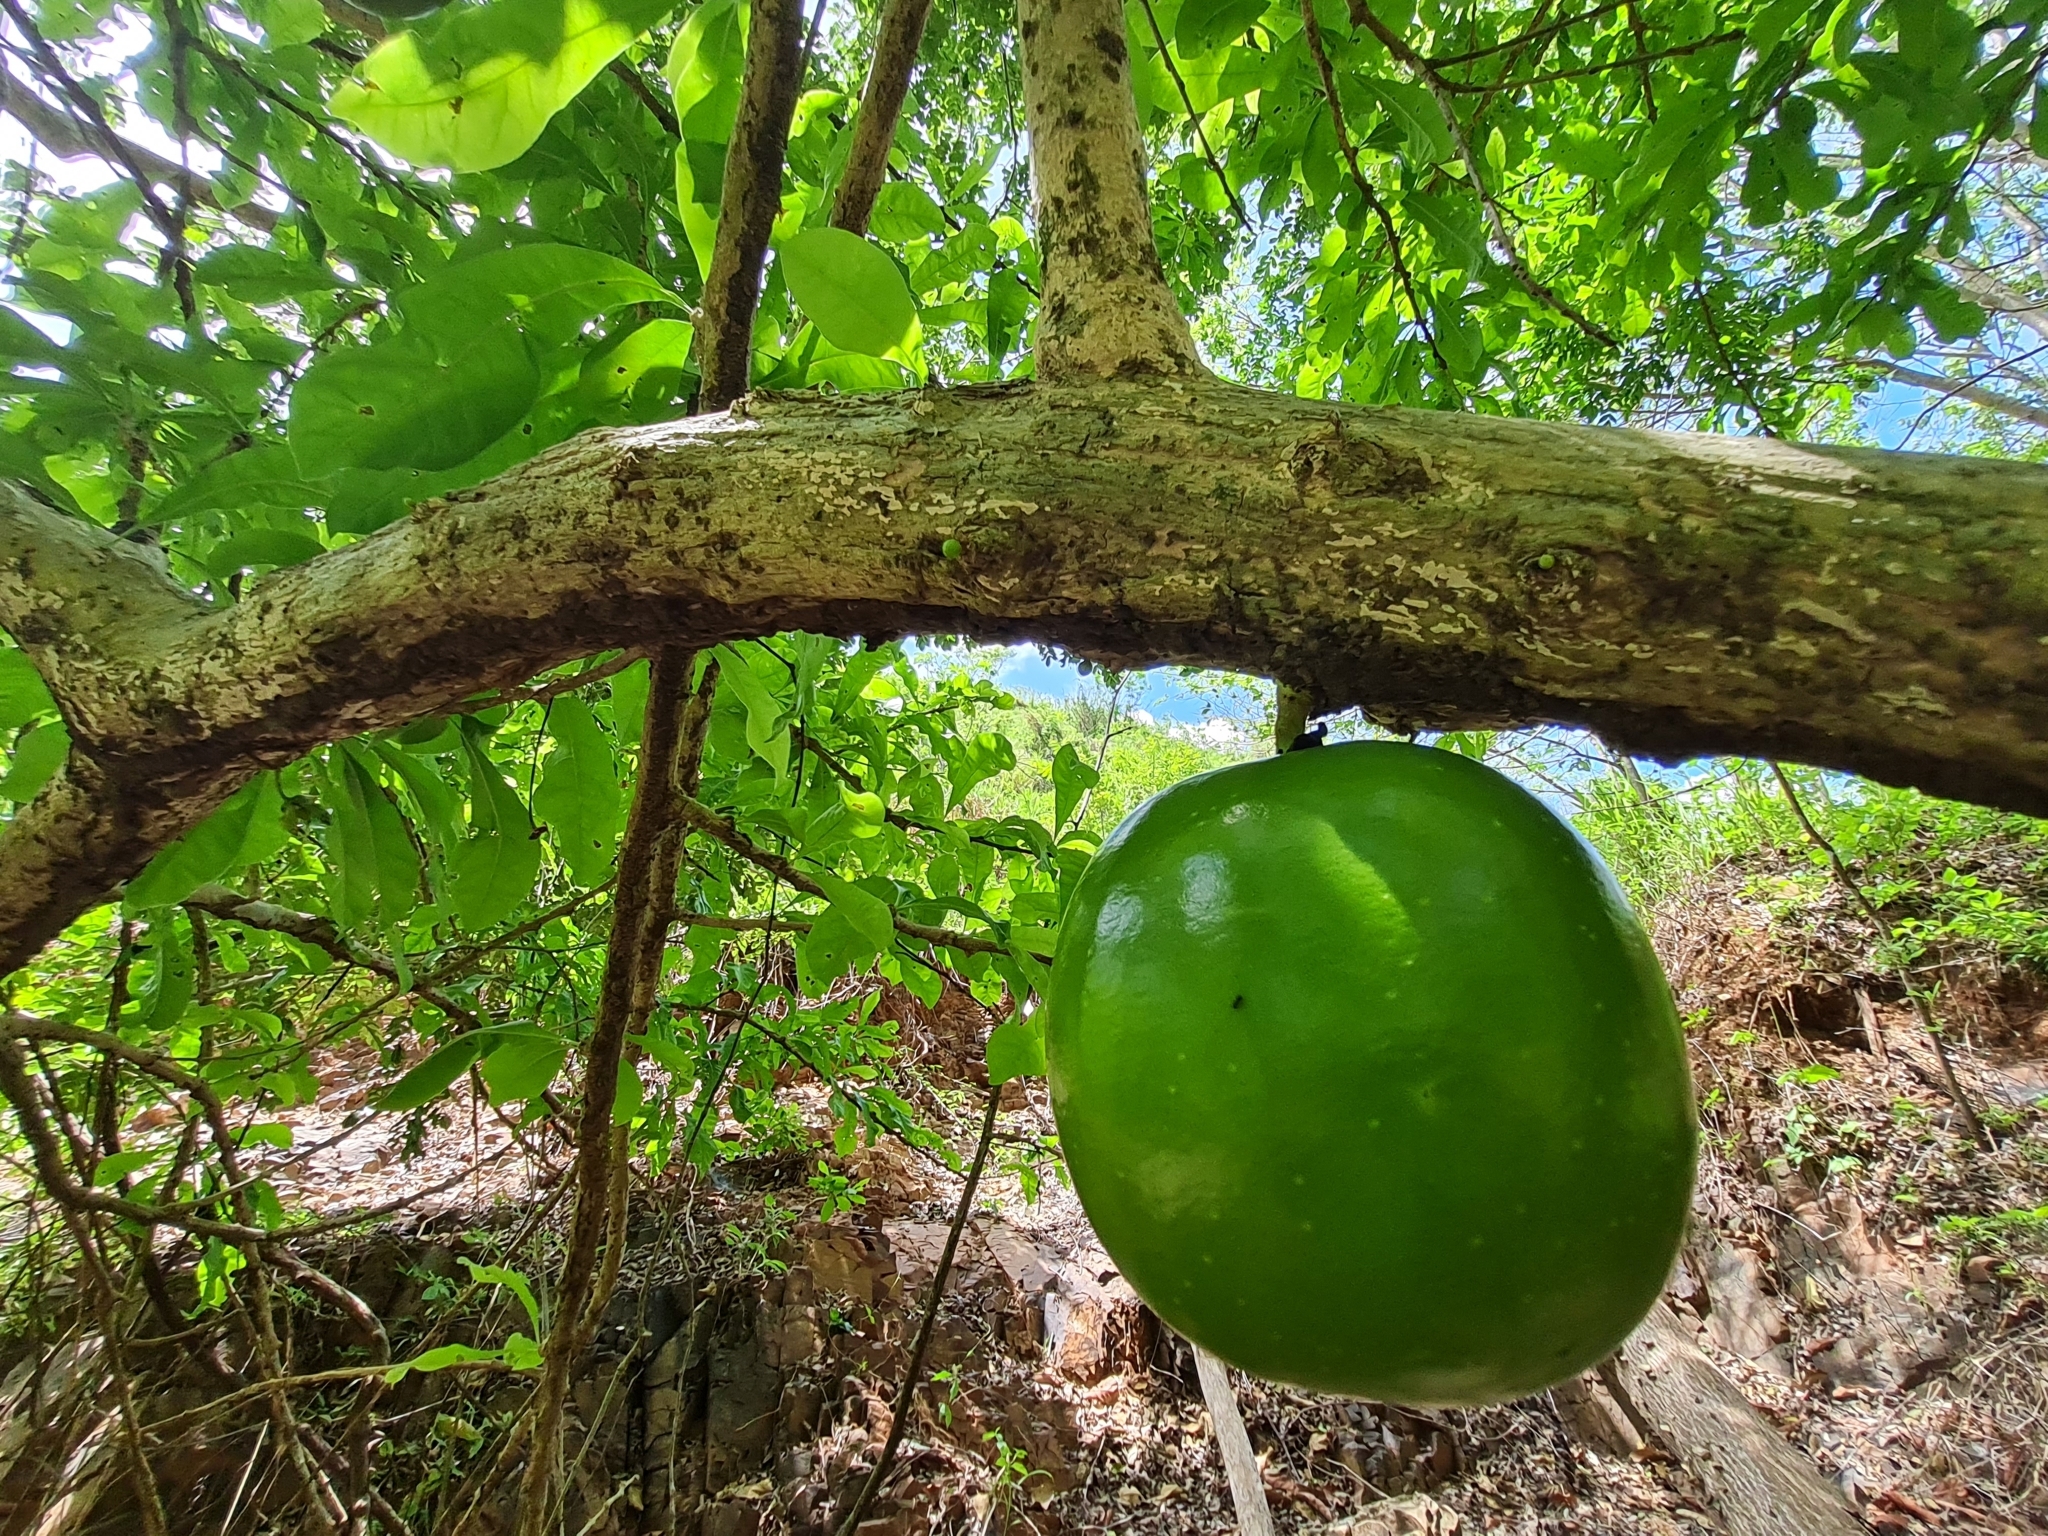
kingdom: Plantae
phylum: Tracheophyta
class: Magnoliopsida
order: Lamiales
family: Bignoniaceae
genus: Crescentia
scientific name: Crescentia cujete
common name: Calabash
